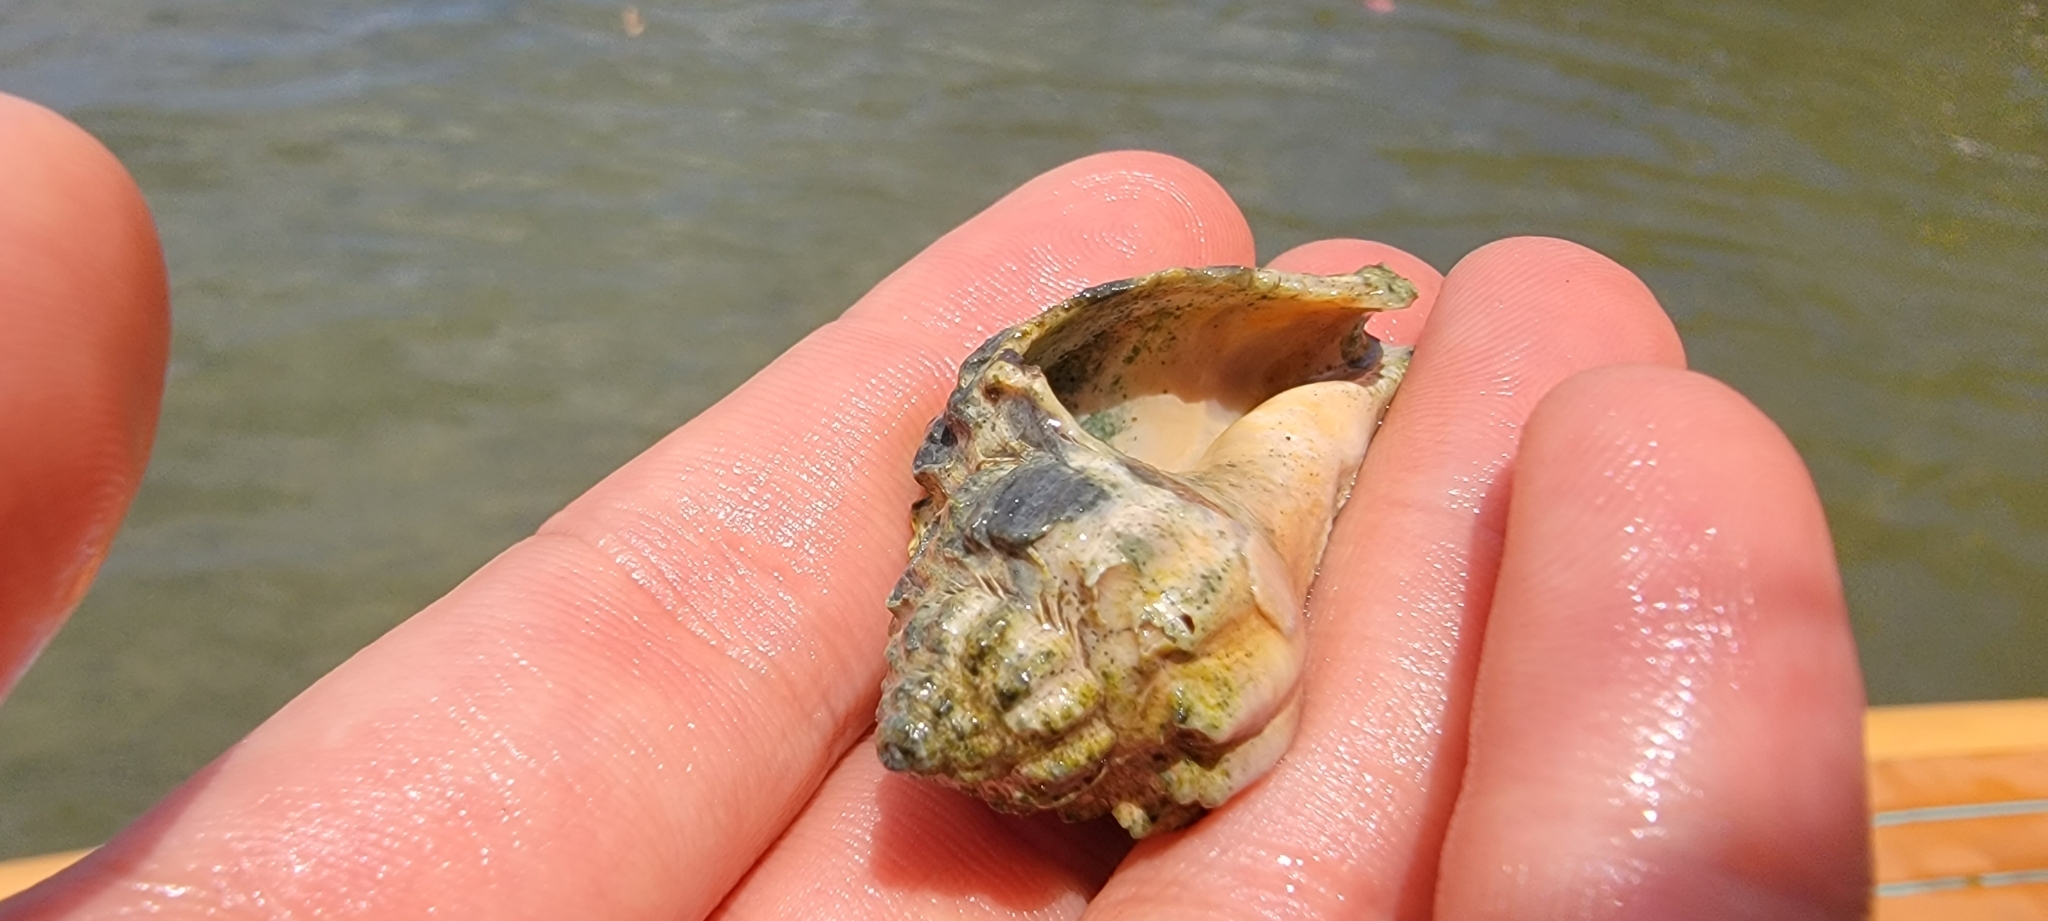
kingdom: Animalia
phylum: Mollusca
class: Gastropoda
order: Neogastropoda
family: Melongenidae
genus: Melongena
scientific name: Melongena corona
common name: American crown conch
